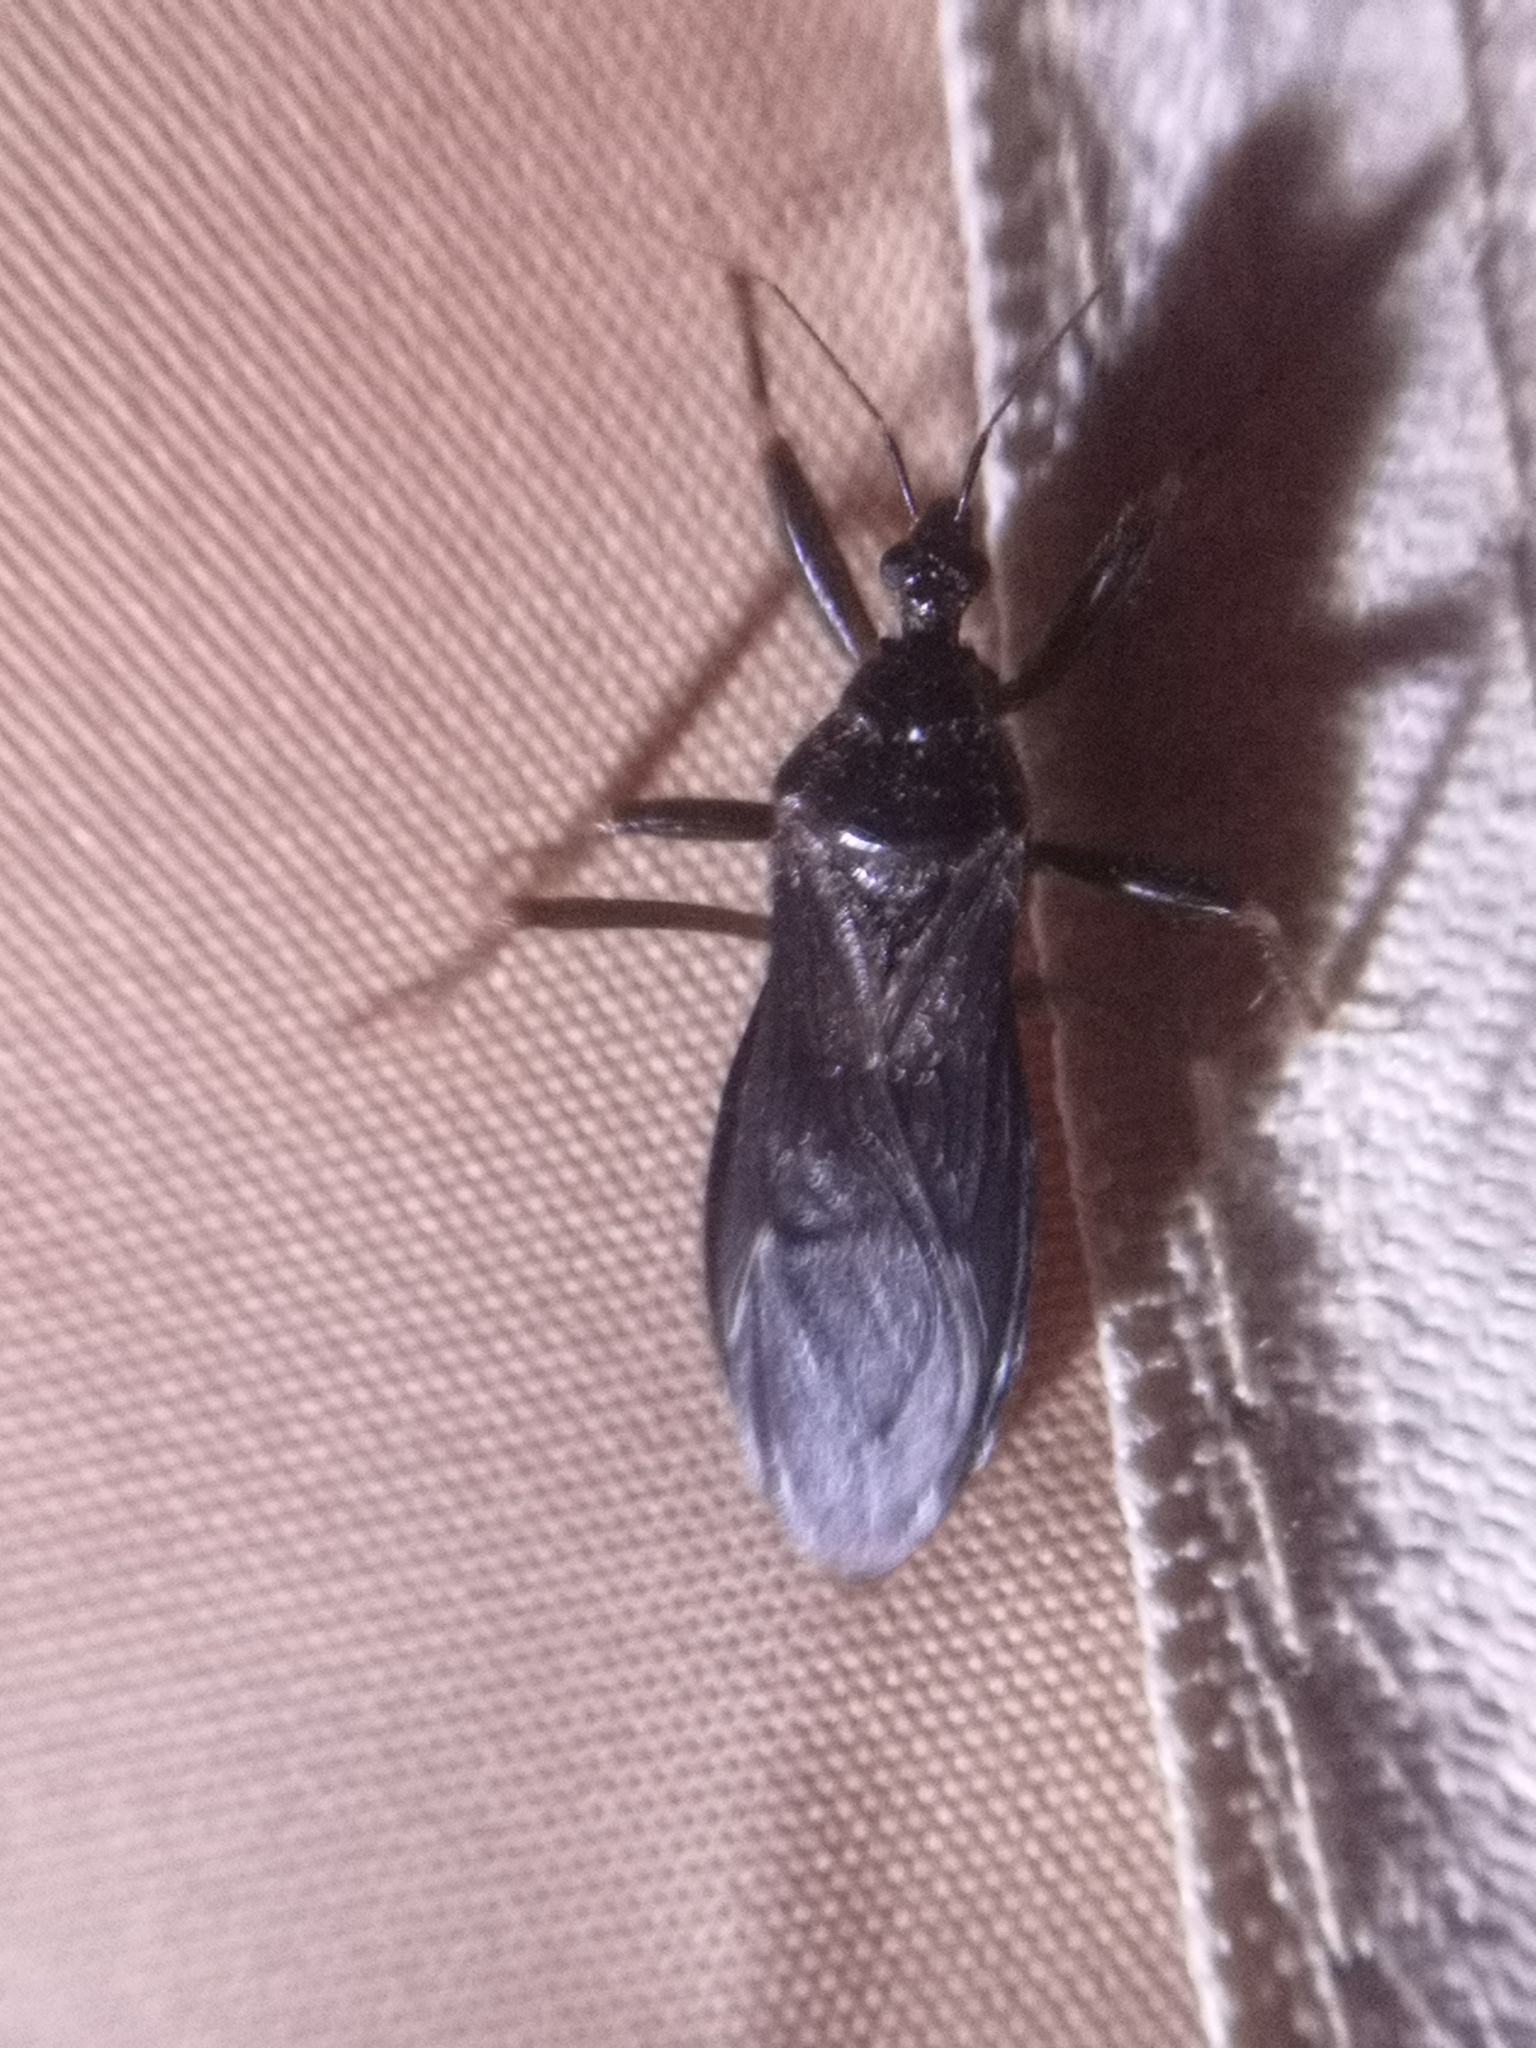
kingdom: Animalia
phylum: Arthropoda
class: Insecta
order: Hemiptera
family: Reduviidae
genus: Reduvius
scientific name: Reduvius personatus
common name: Masked hunter
